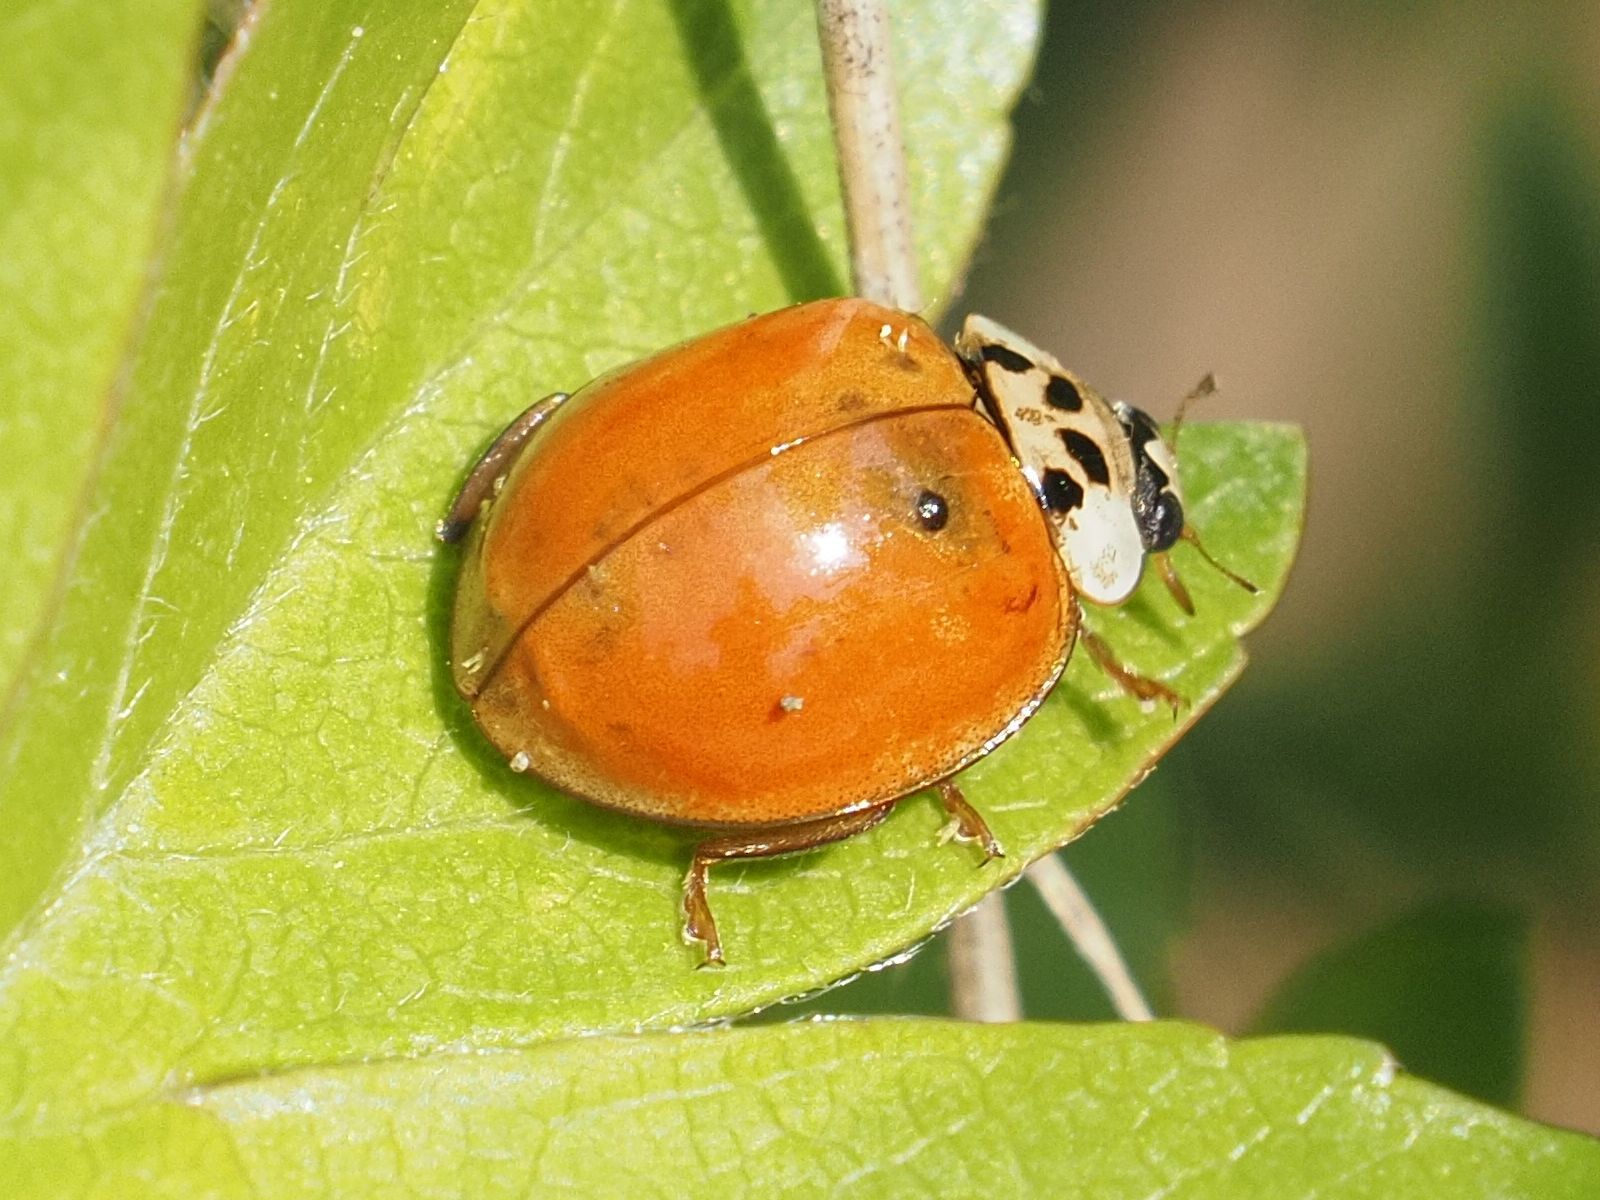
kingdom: Animalia
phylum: Arthropoda
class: Insecta
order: Coleoptera
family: Coccinellidae
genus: Harmonia
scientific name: Harmonia axyridis
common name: Harlequin ladybird
